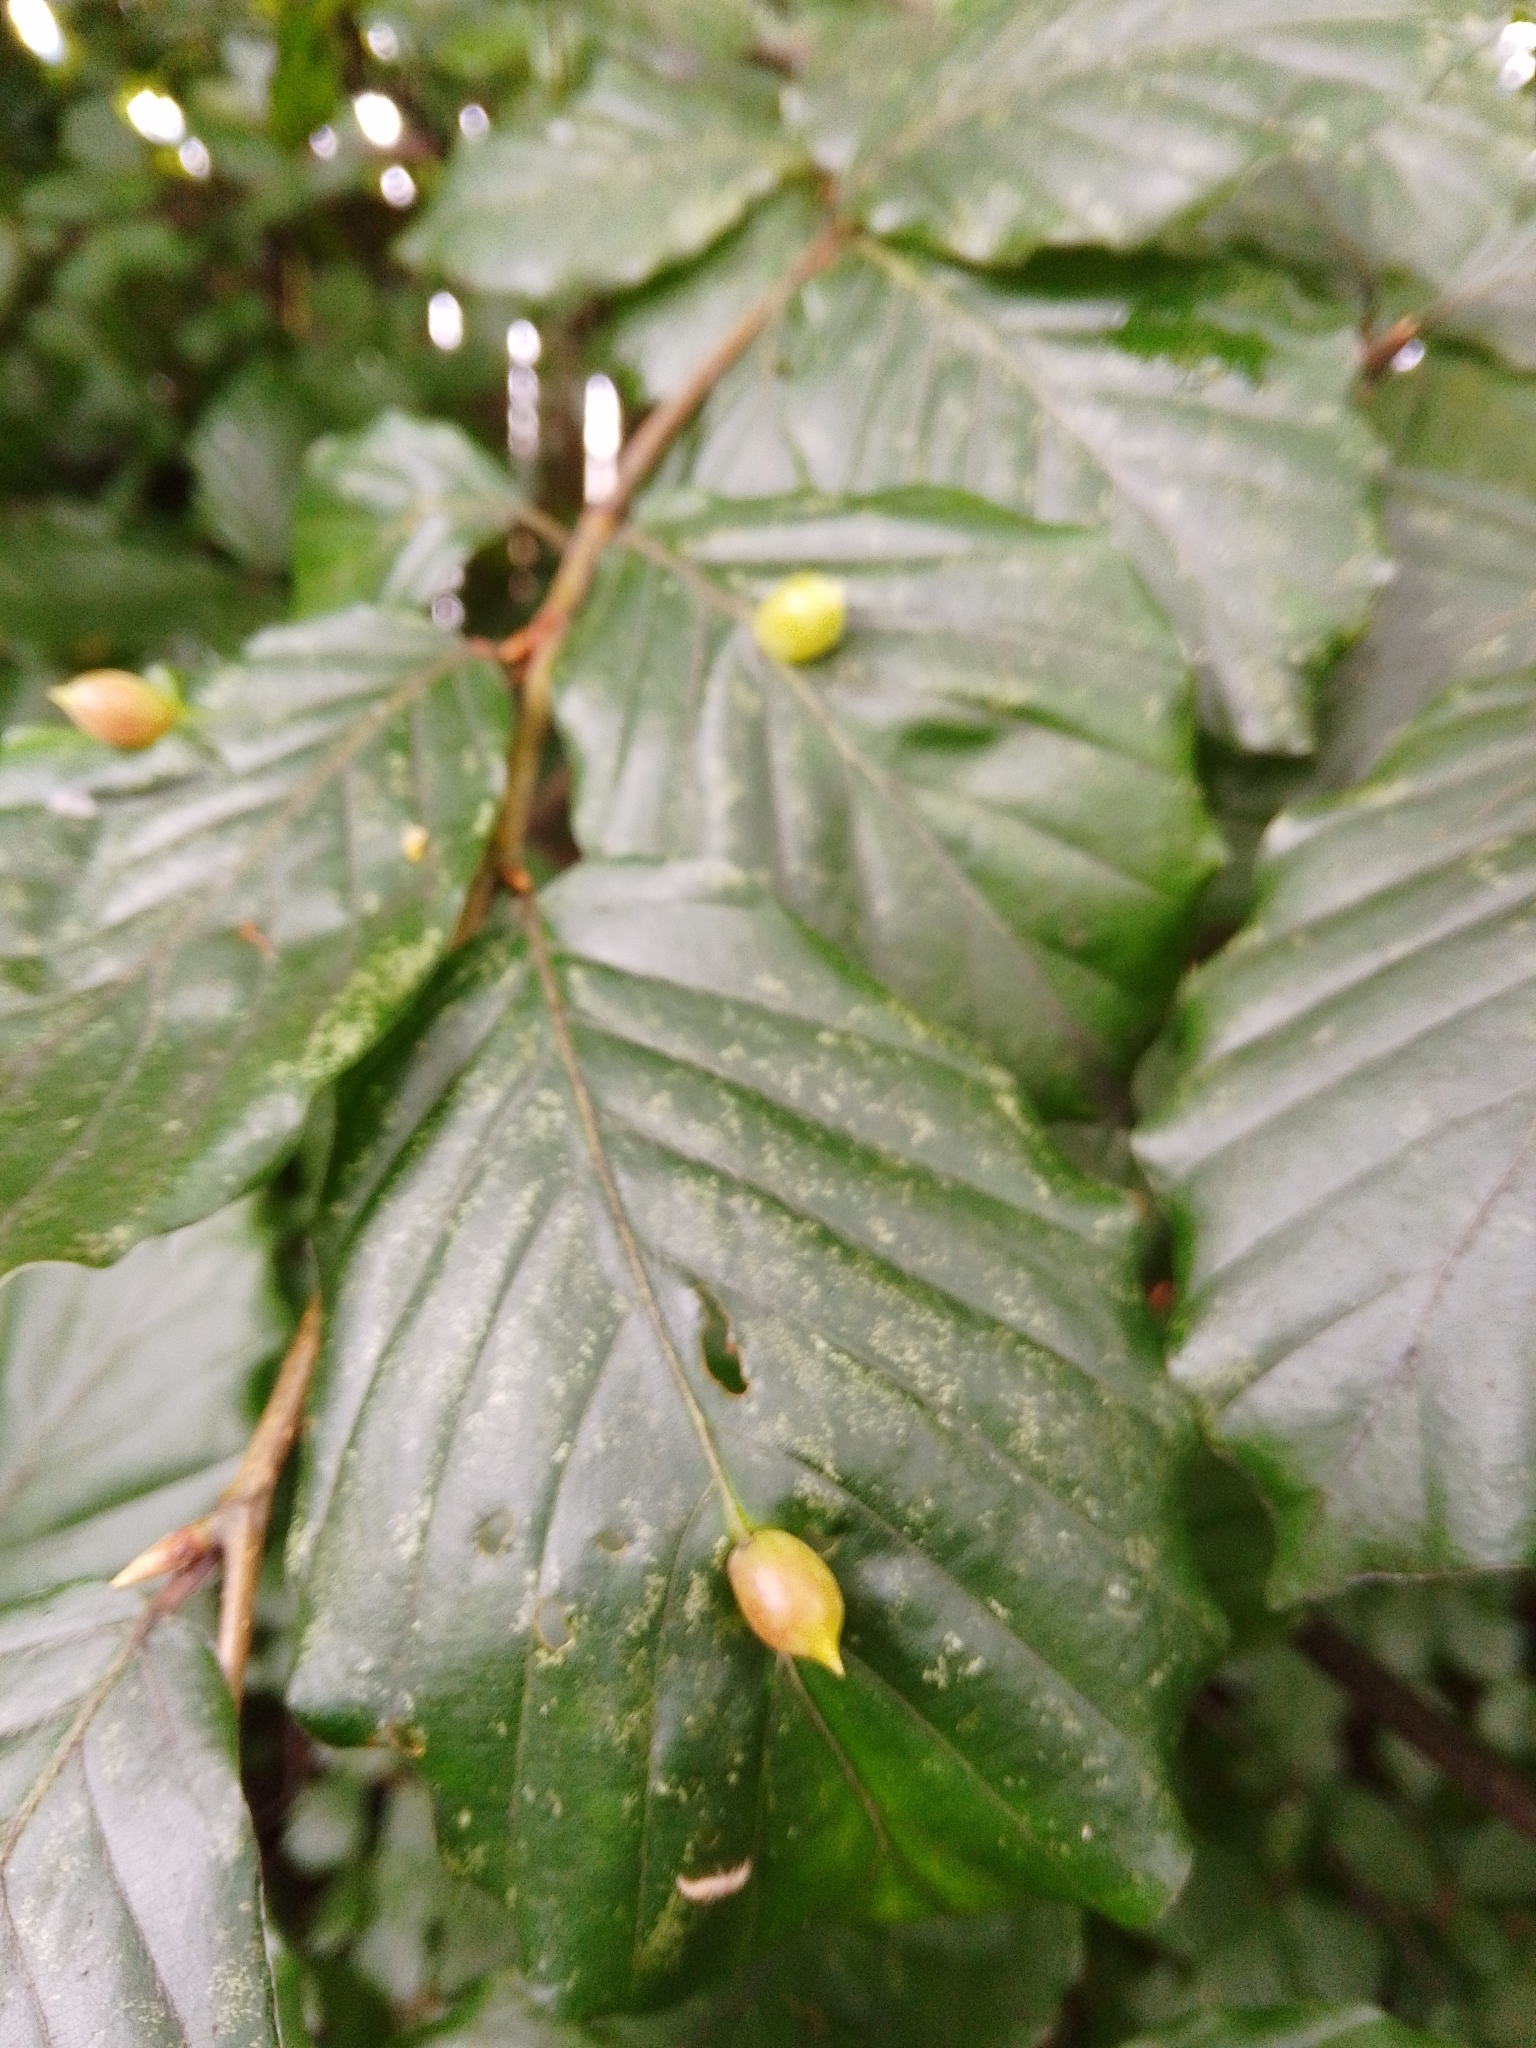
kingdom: Animalia
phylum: Arthropoda
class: Insecta
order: Diptera
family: Cecidomyiidae
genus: Mikiola
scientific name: Mikiola fagi
